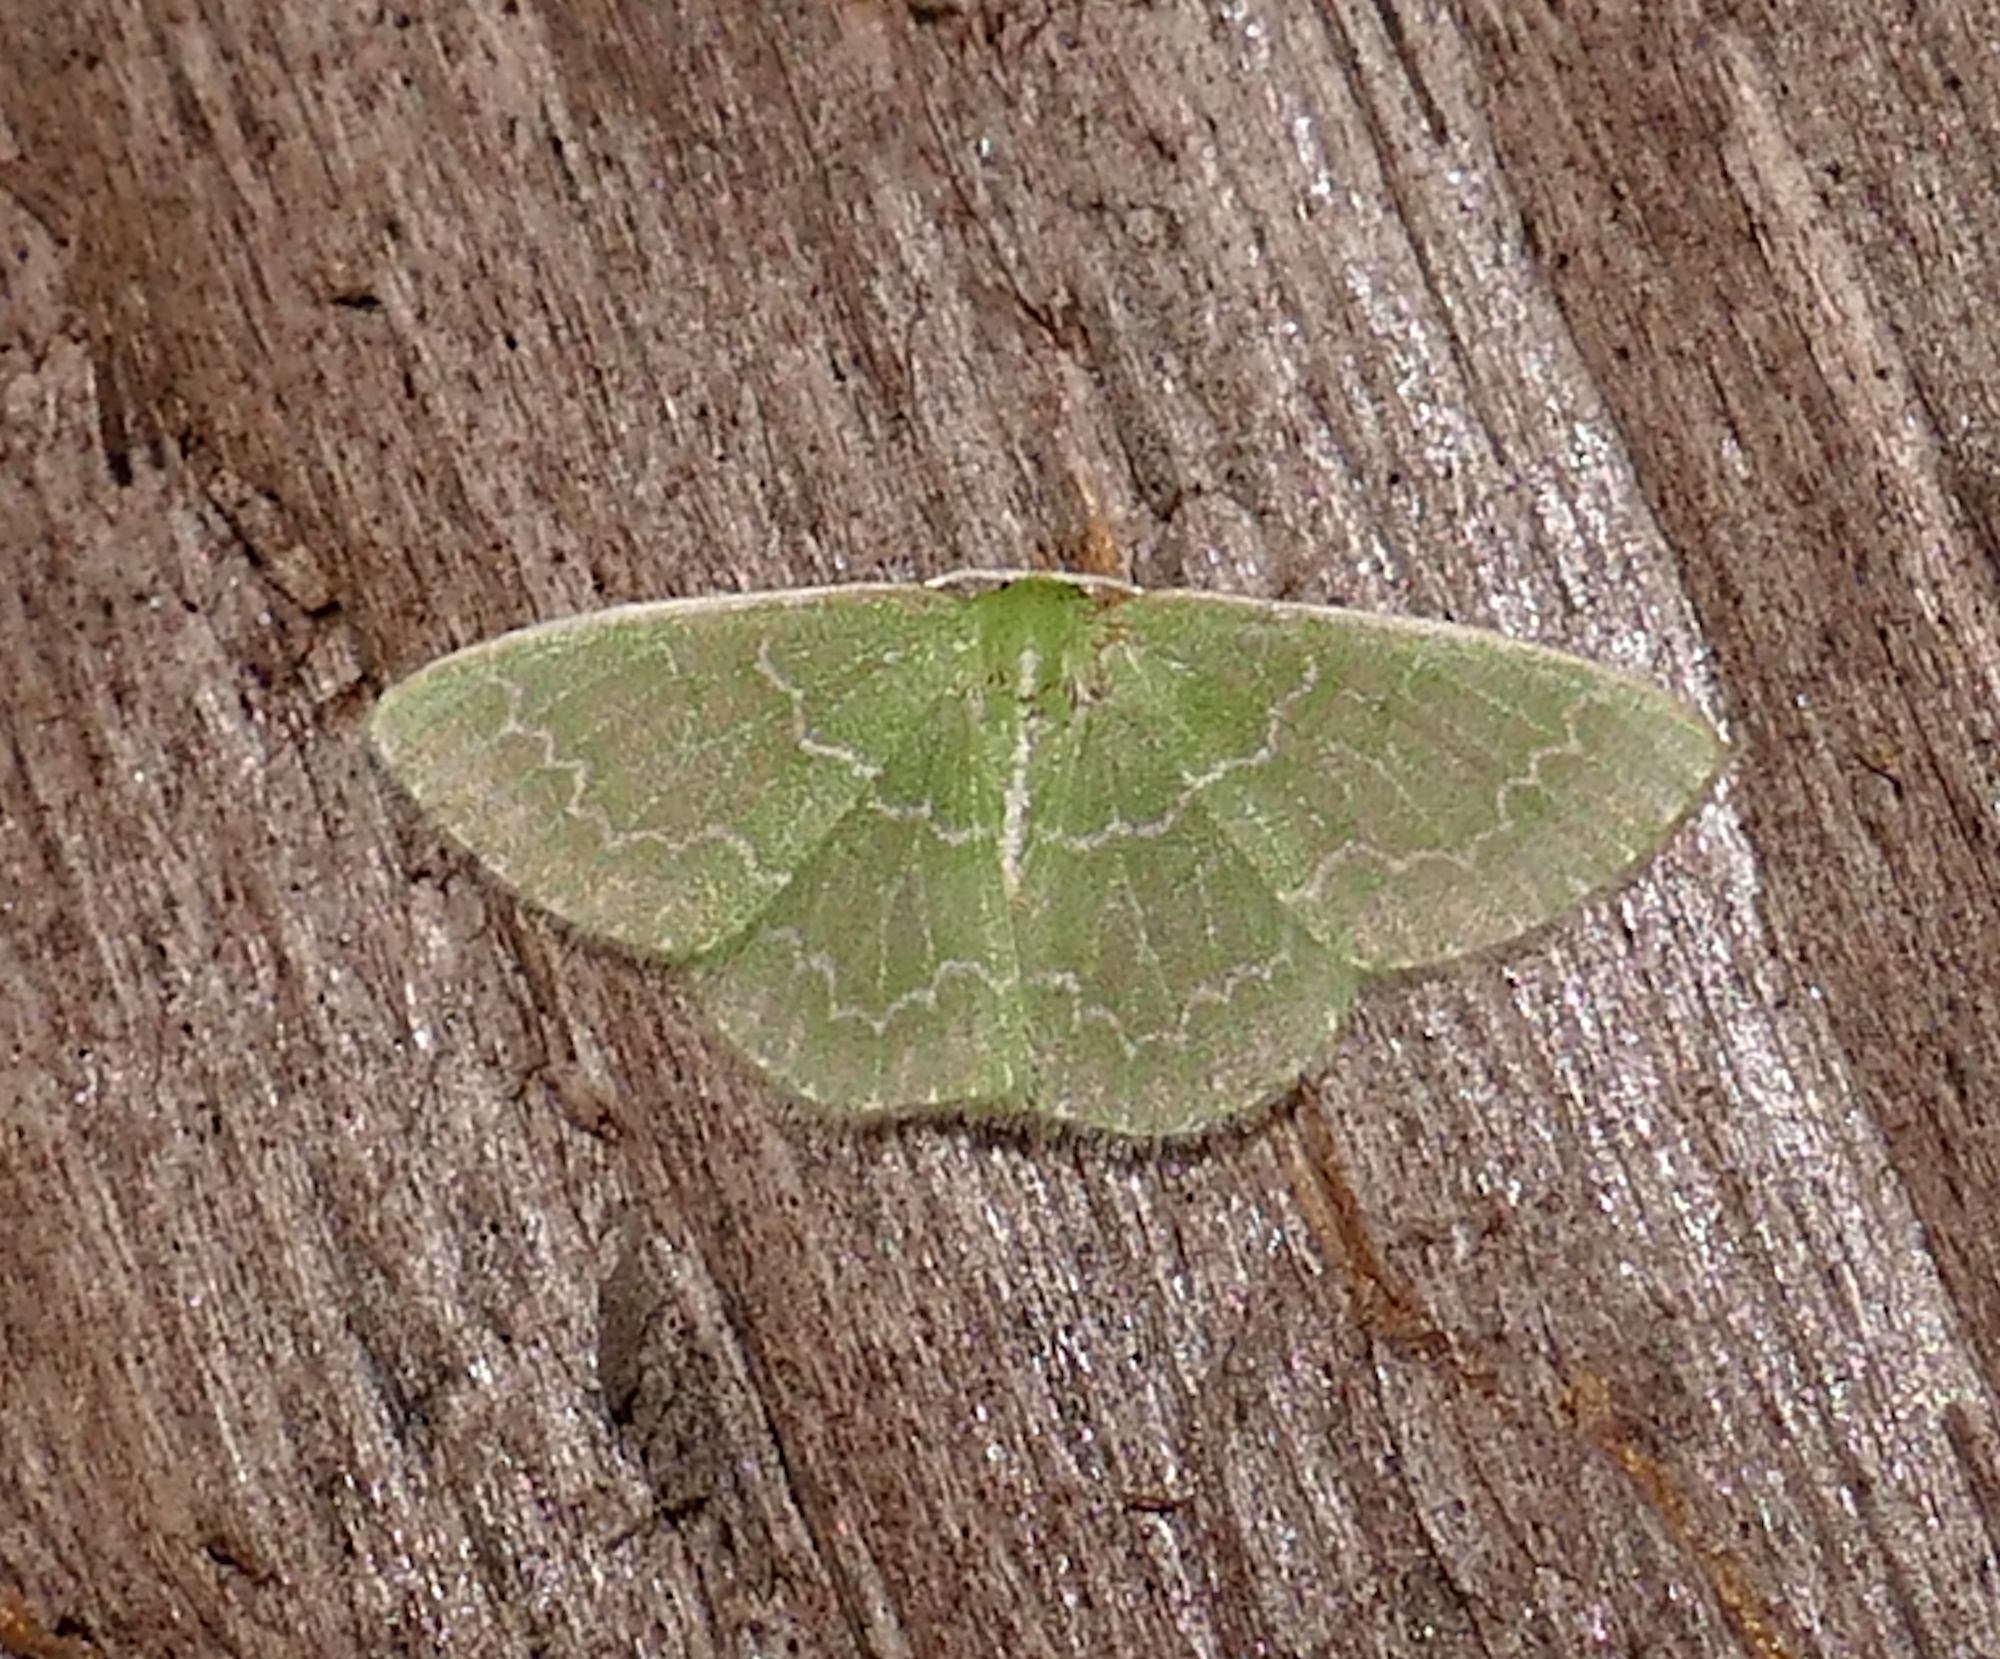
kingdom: Animalia
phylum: Arthropoda
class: Insecta
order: Lepidoptera
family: Geometridae
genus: Synchlora
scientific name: Synchlora frondaria
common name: Southern emerald
